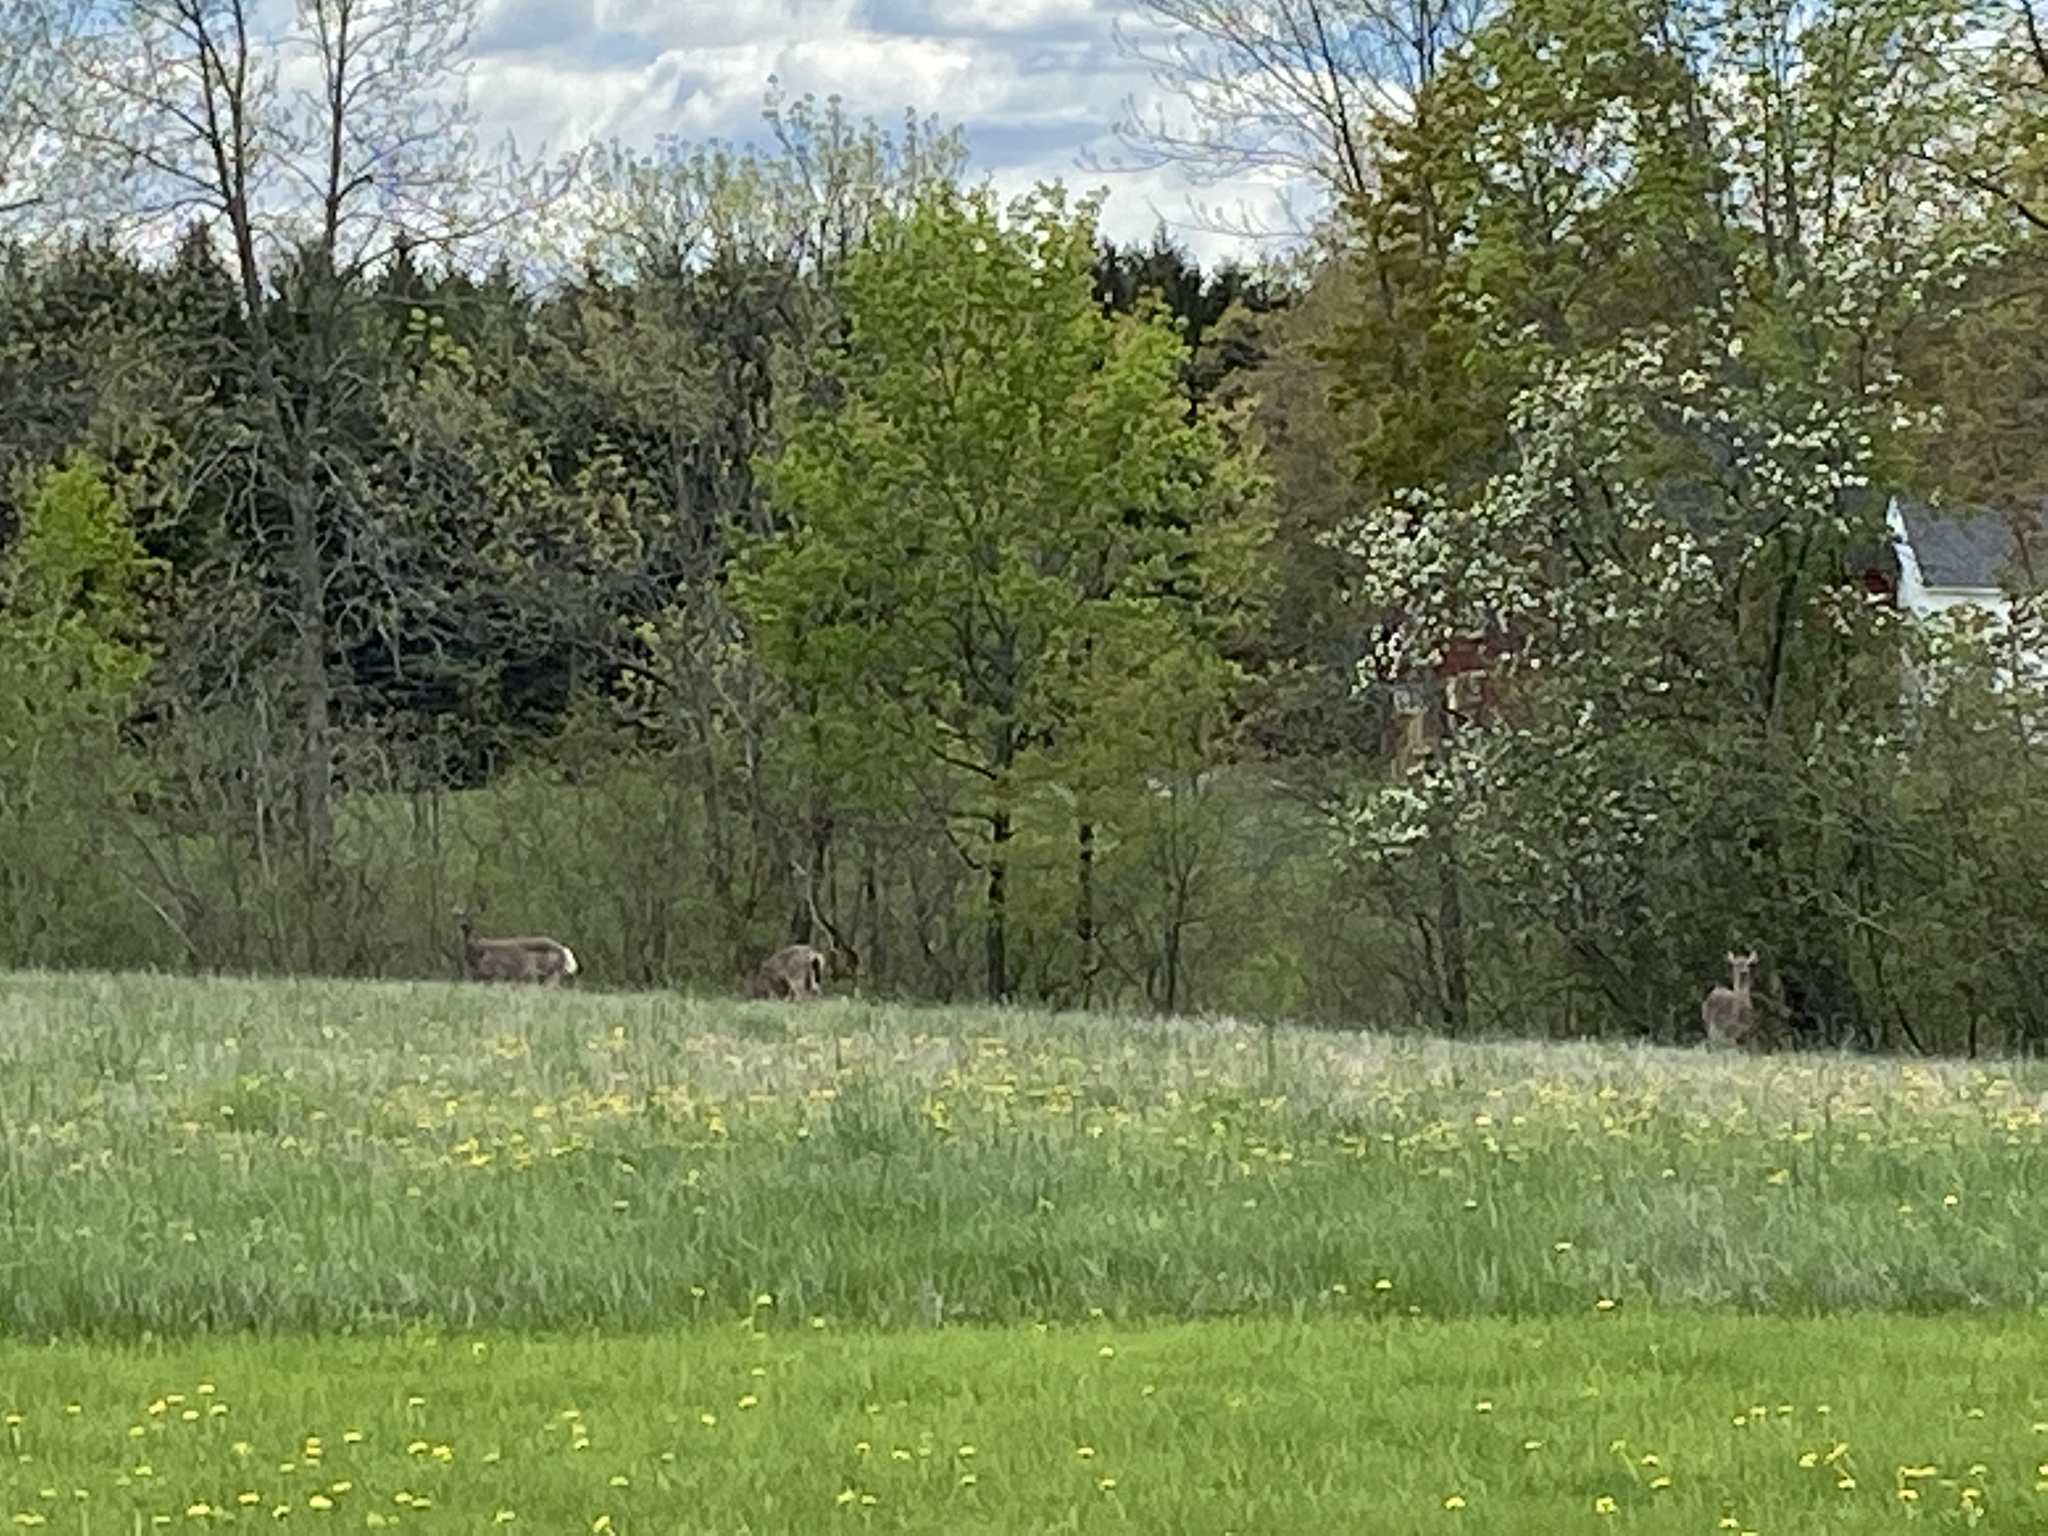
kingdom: Animalia
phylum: Chordata
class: Mammalia
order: Artiodactyla
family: Cervidae
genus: Odocoileus
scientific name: Odocoileus virginianus
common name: White-tailed deer
